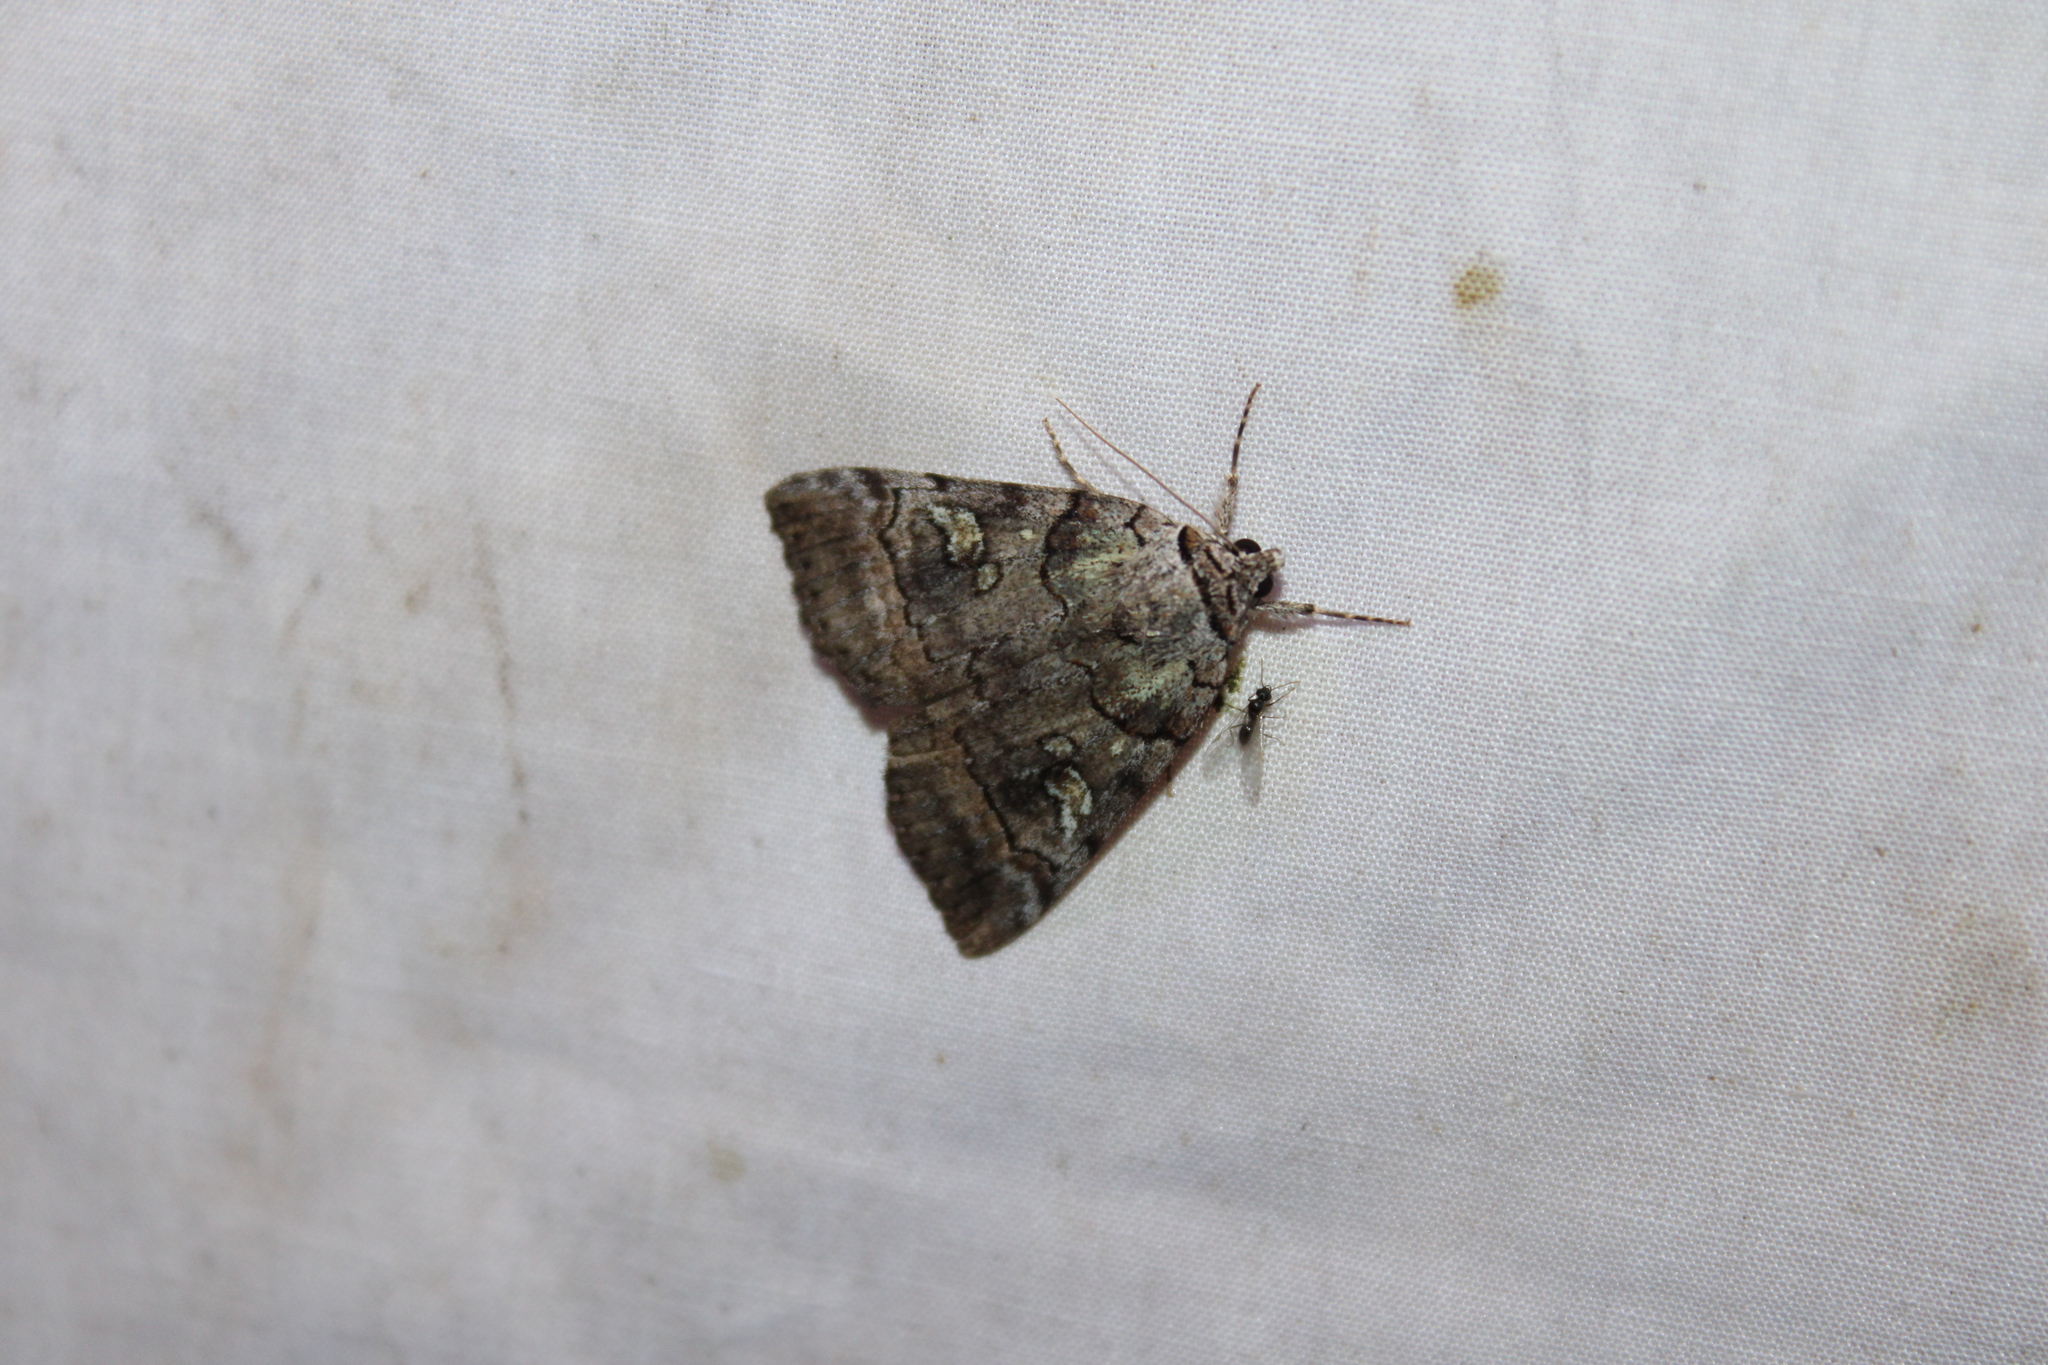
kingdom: Animalia
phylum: Arthropoda
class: Insecta
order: Lepidoptera
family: Erebidae
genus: Catocala
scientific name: Catocala similis
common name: Similar underwing
